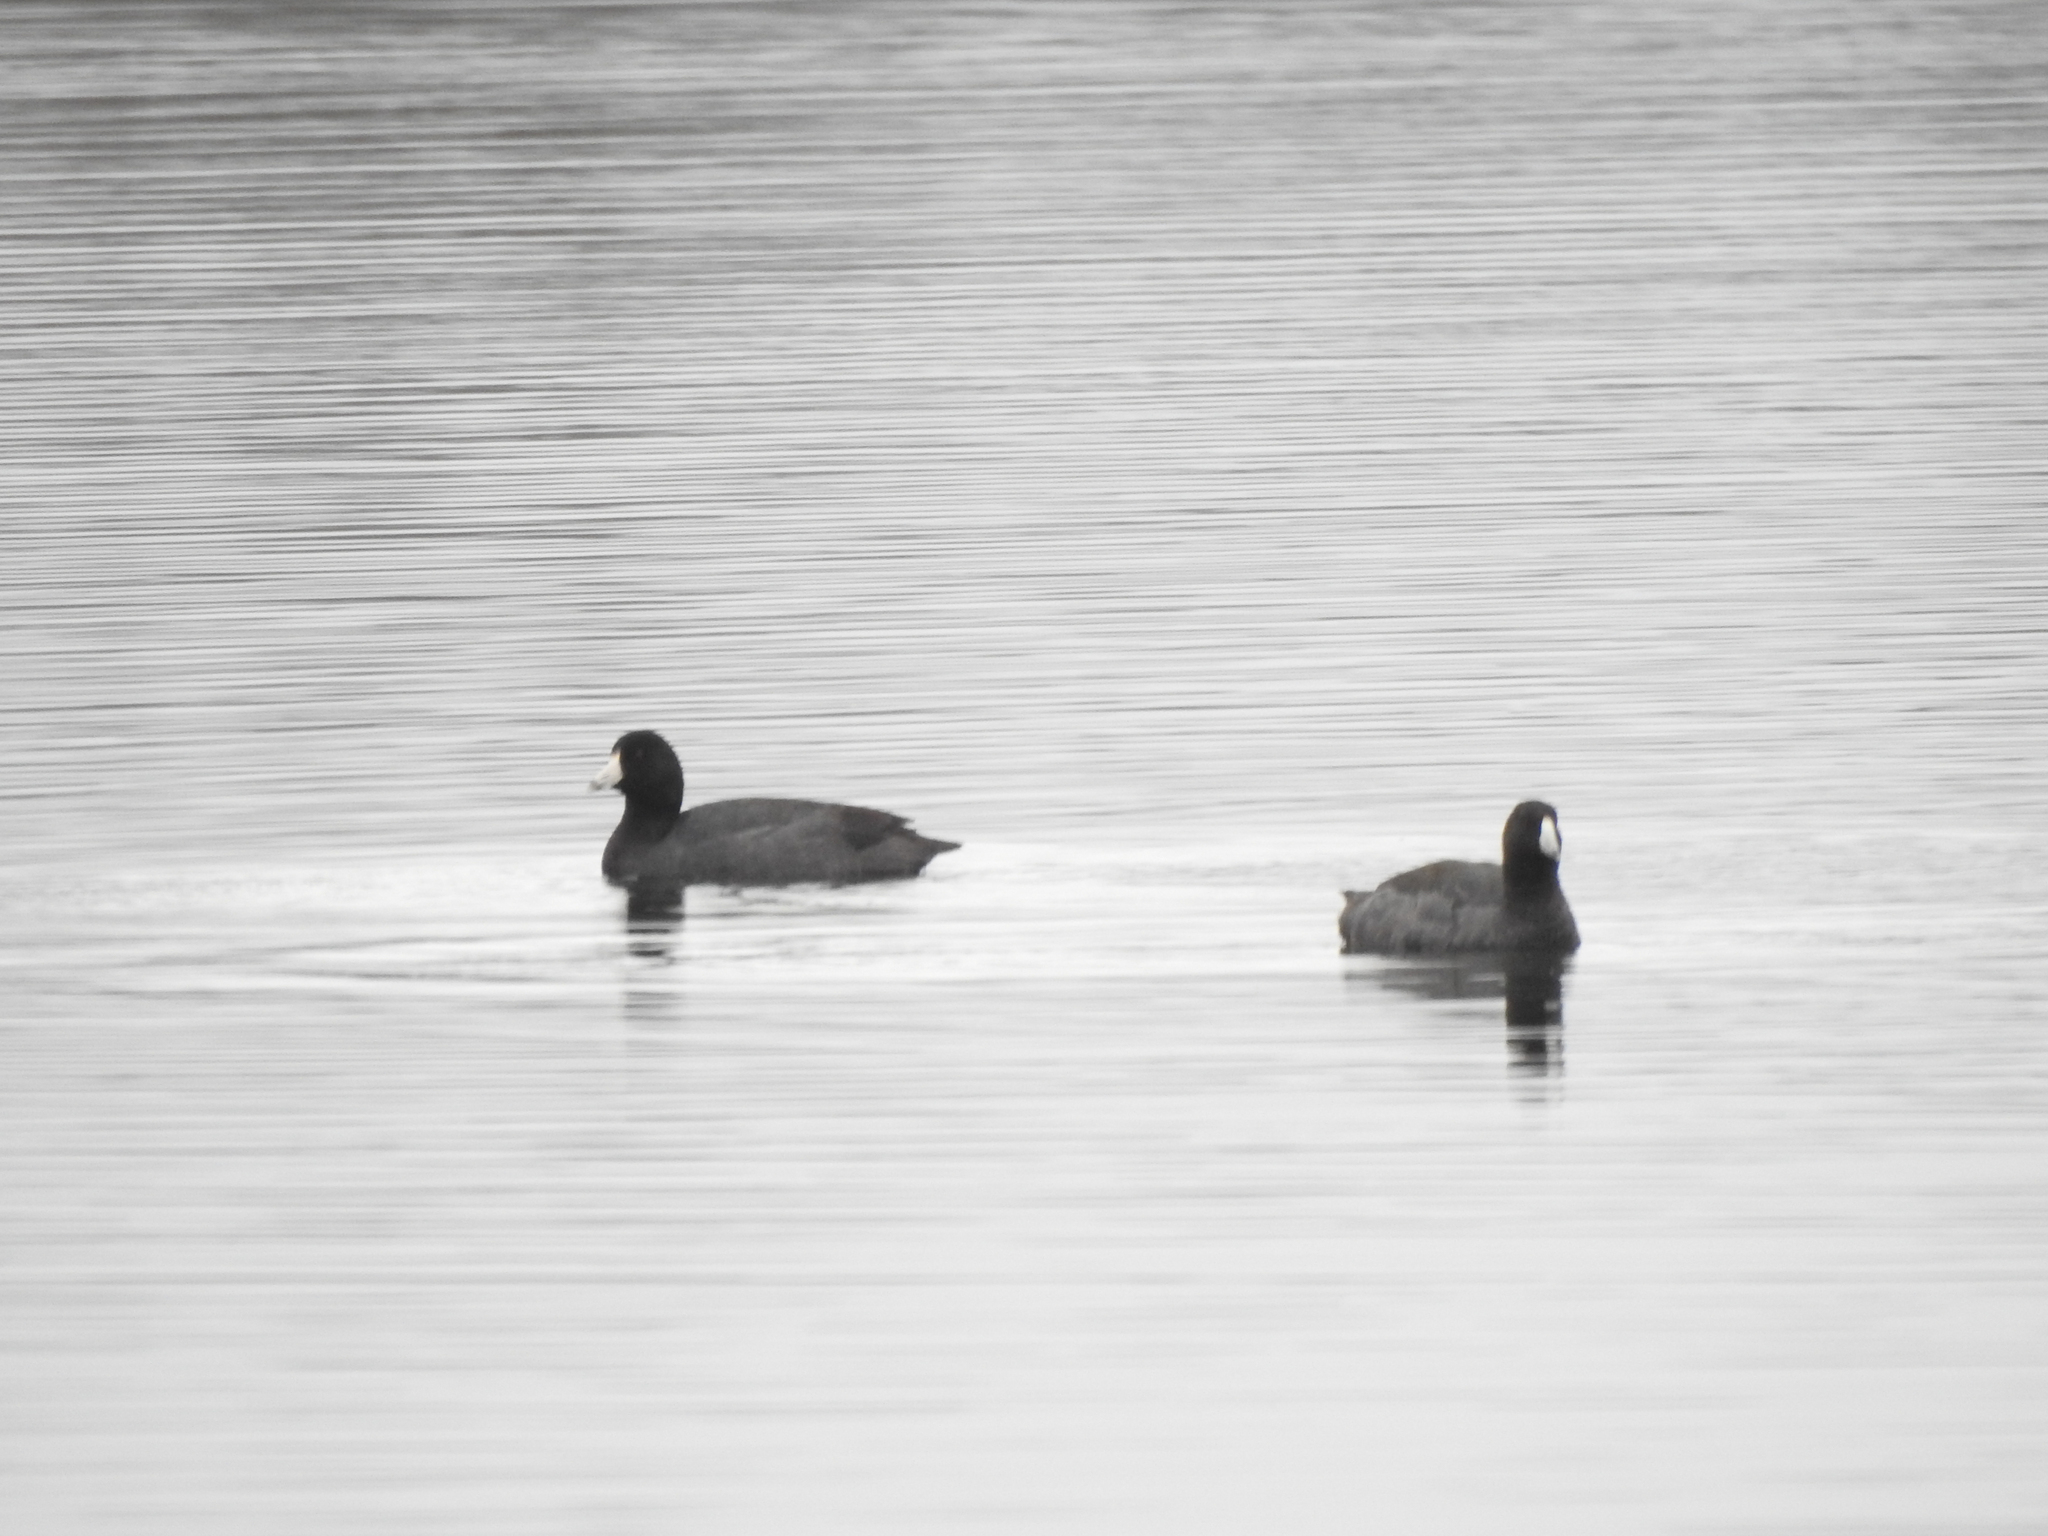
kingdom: Animalia
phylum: Chordata
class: Aves
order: Gruiformes
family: Rallidae
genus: Fulica
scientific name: Fulica americana
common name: American coot
